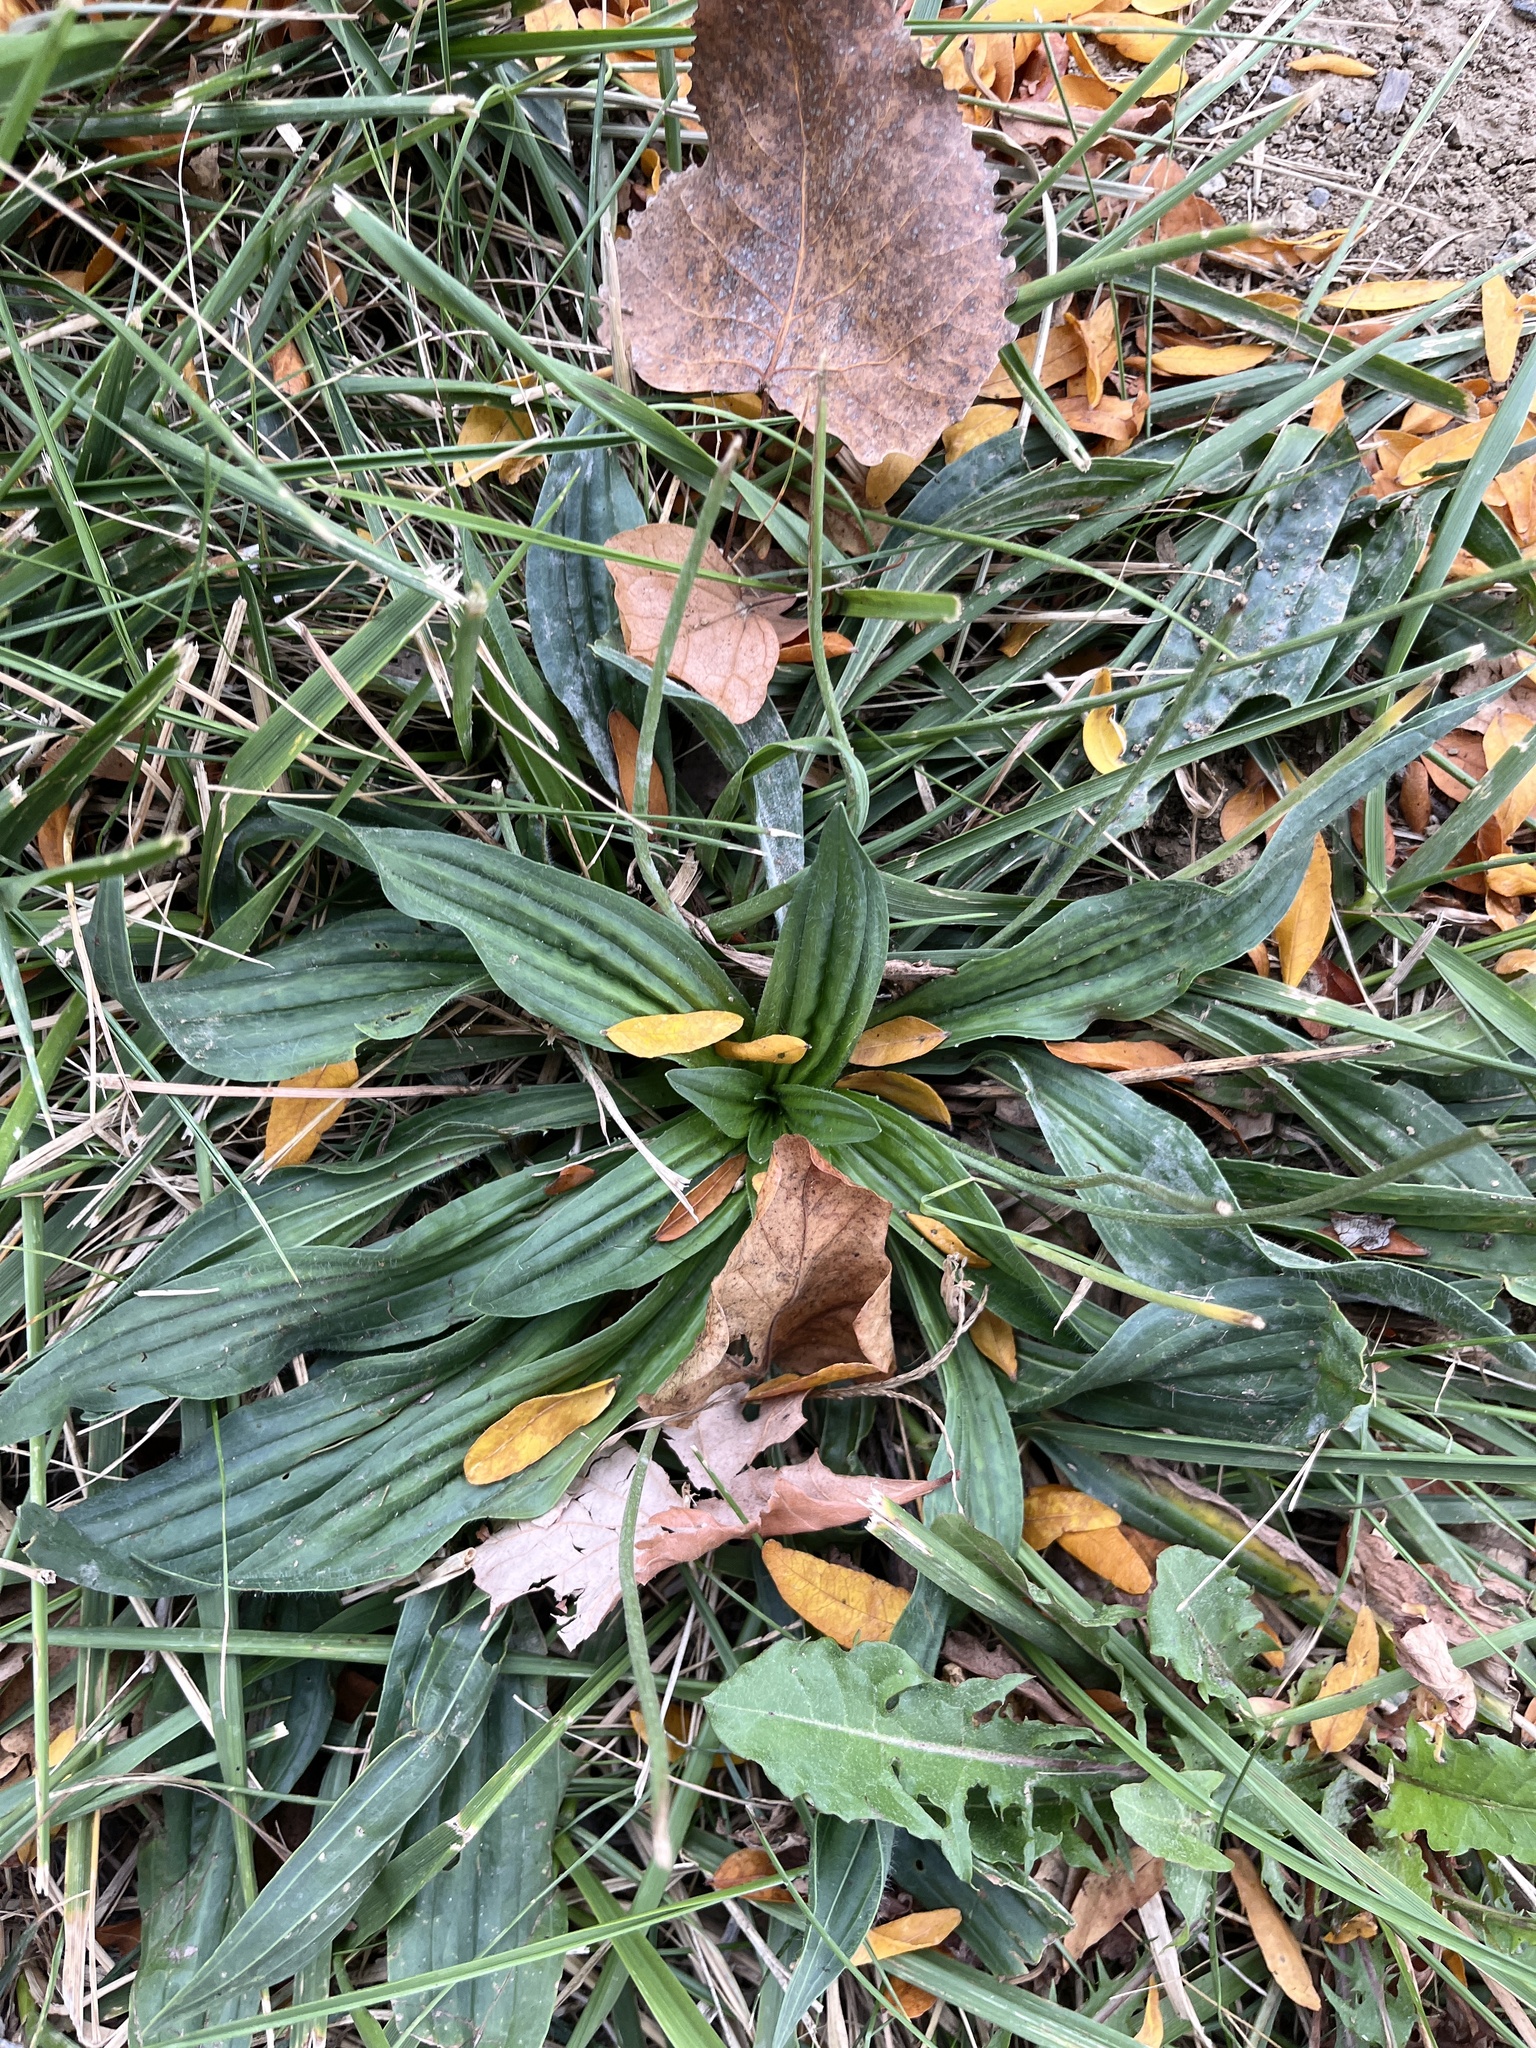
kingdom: Plantae
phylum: Tracheophyta
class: Magnoliopsida
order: Lamiales
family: Plantaginaceae
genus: Plantago
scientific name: Plantago lanceolata
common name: Ribwort plantain
